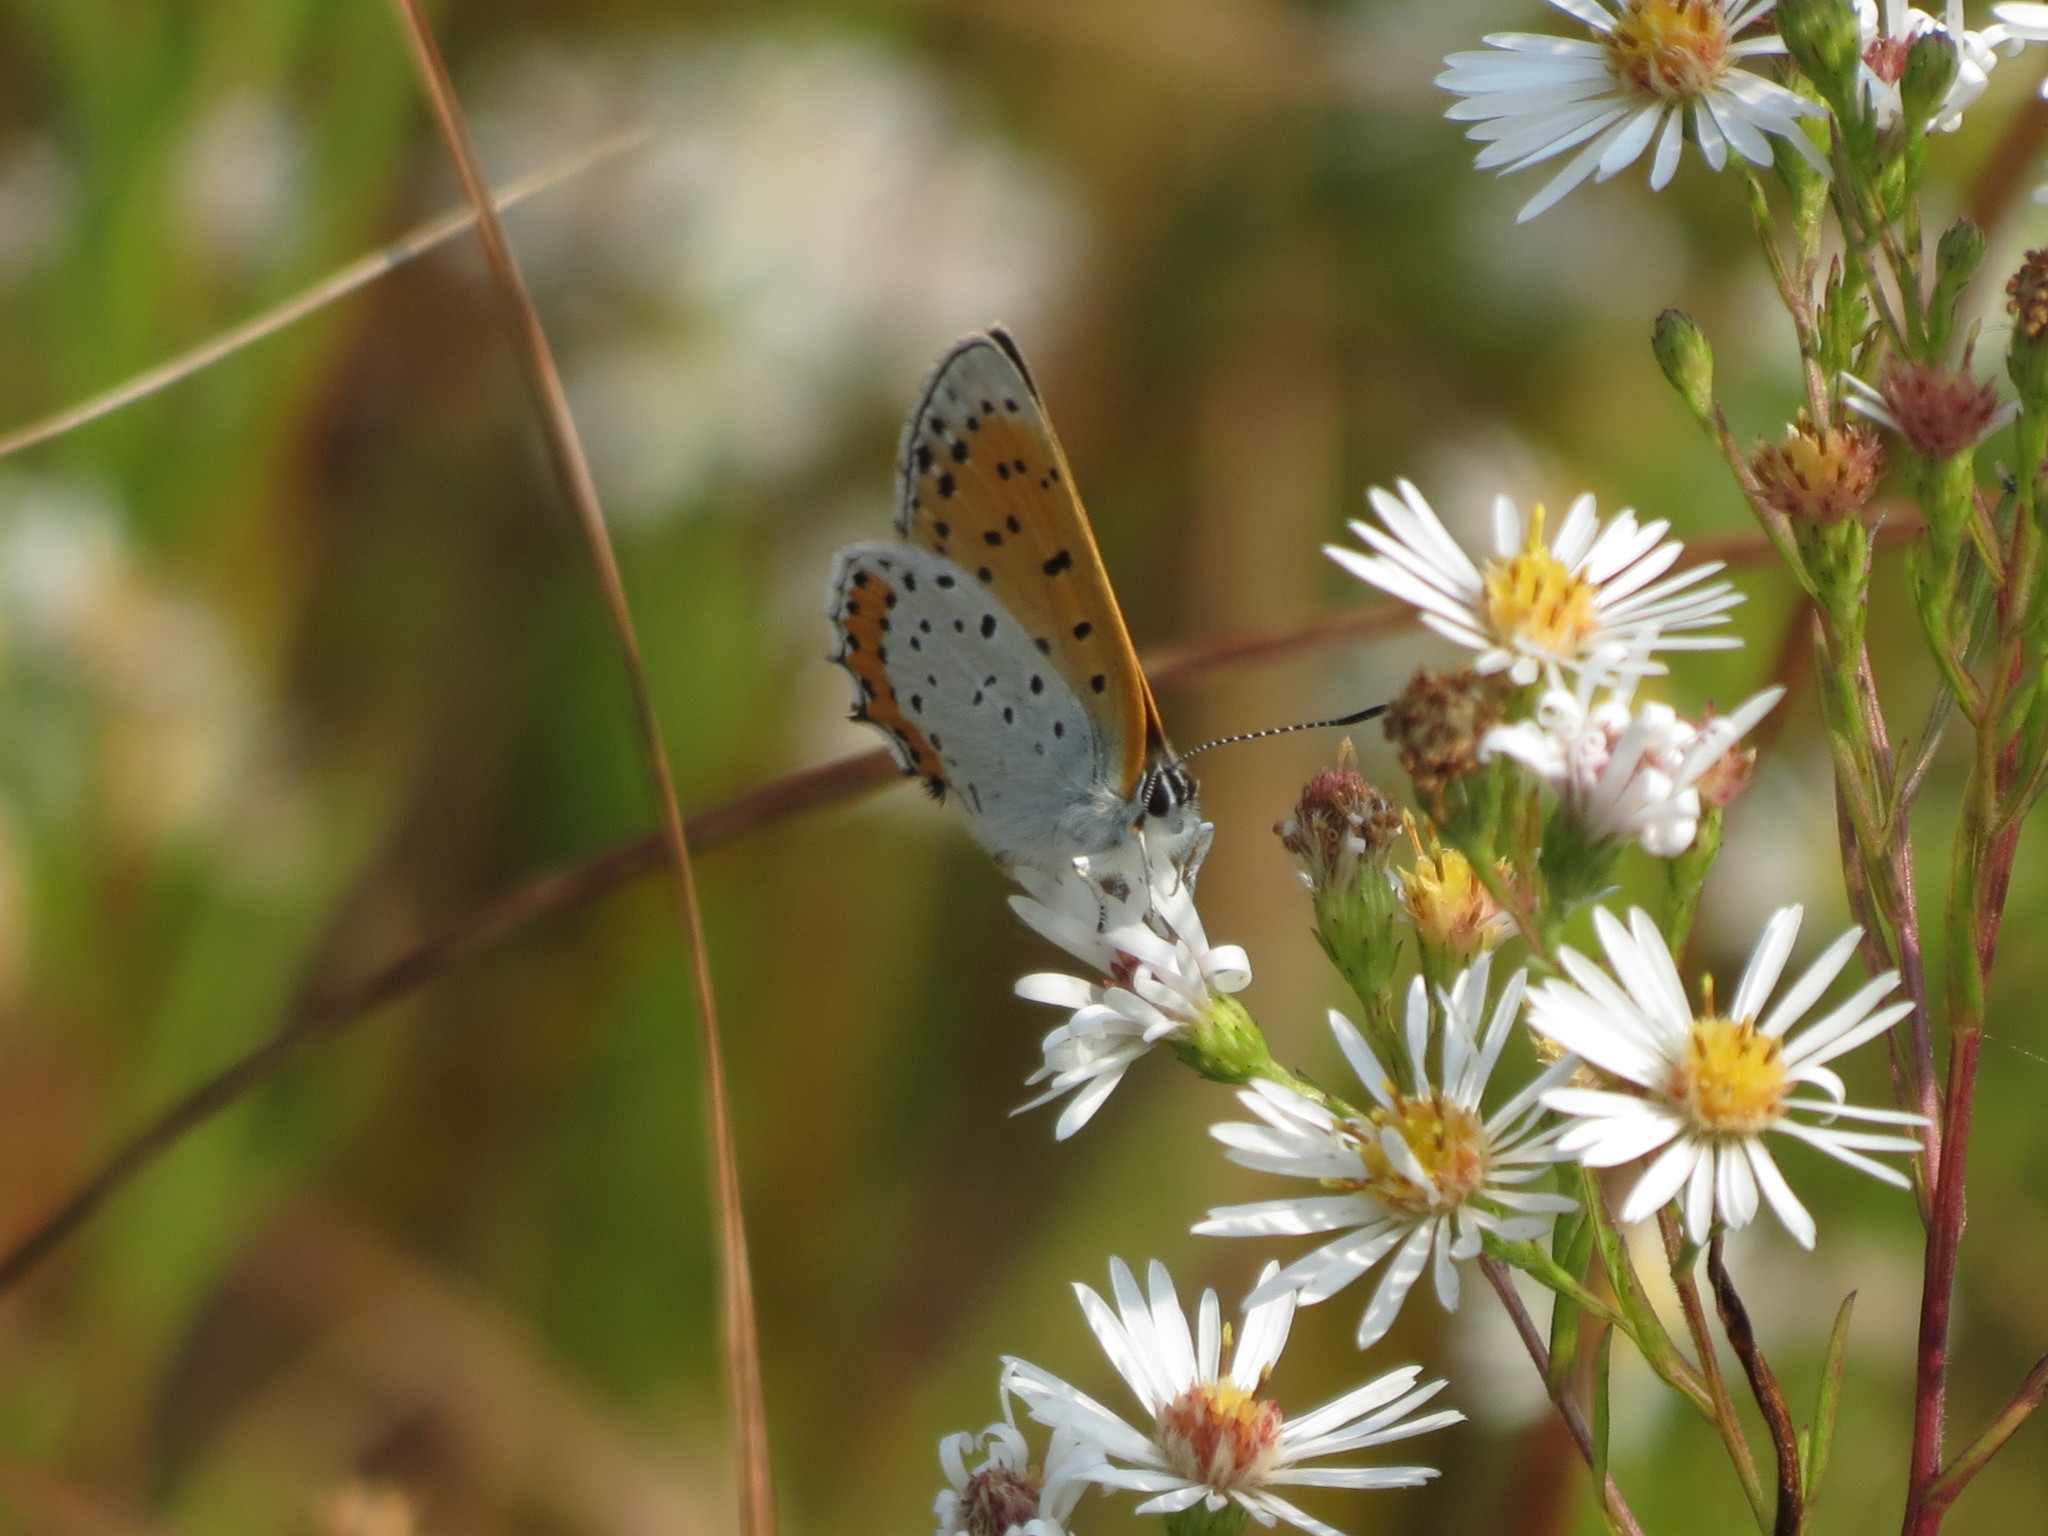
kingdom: Animalia
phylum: Arthropoda
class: Insecta
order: Lepidoptera
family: Lycaenidae
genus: Tharsalea
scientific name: Tharsalea hyllus
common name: Bronze copper
